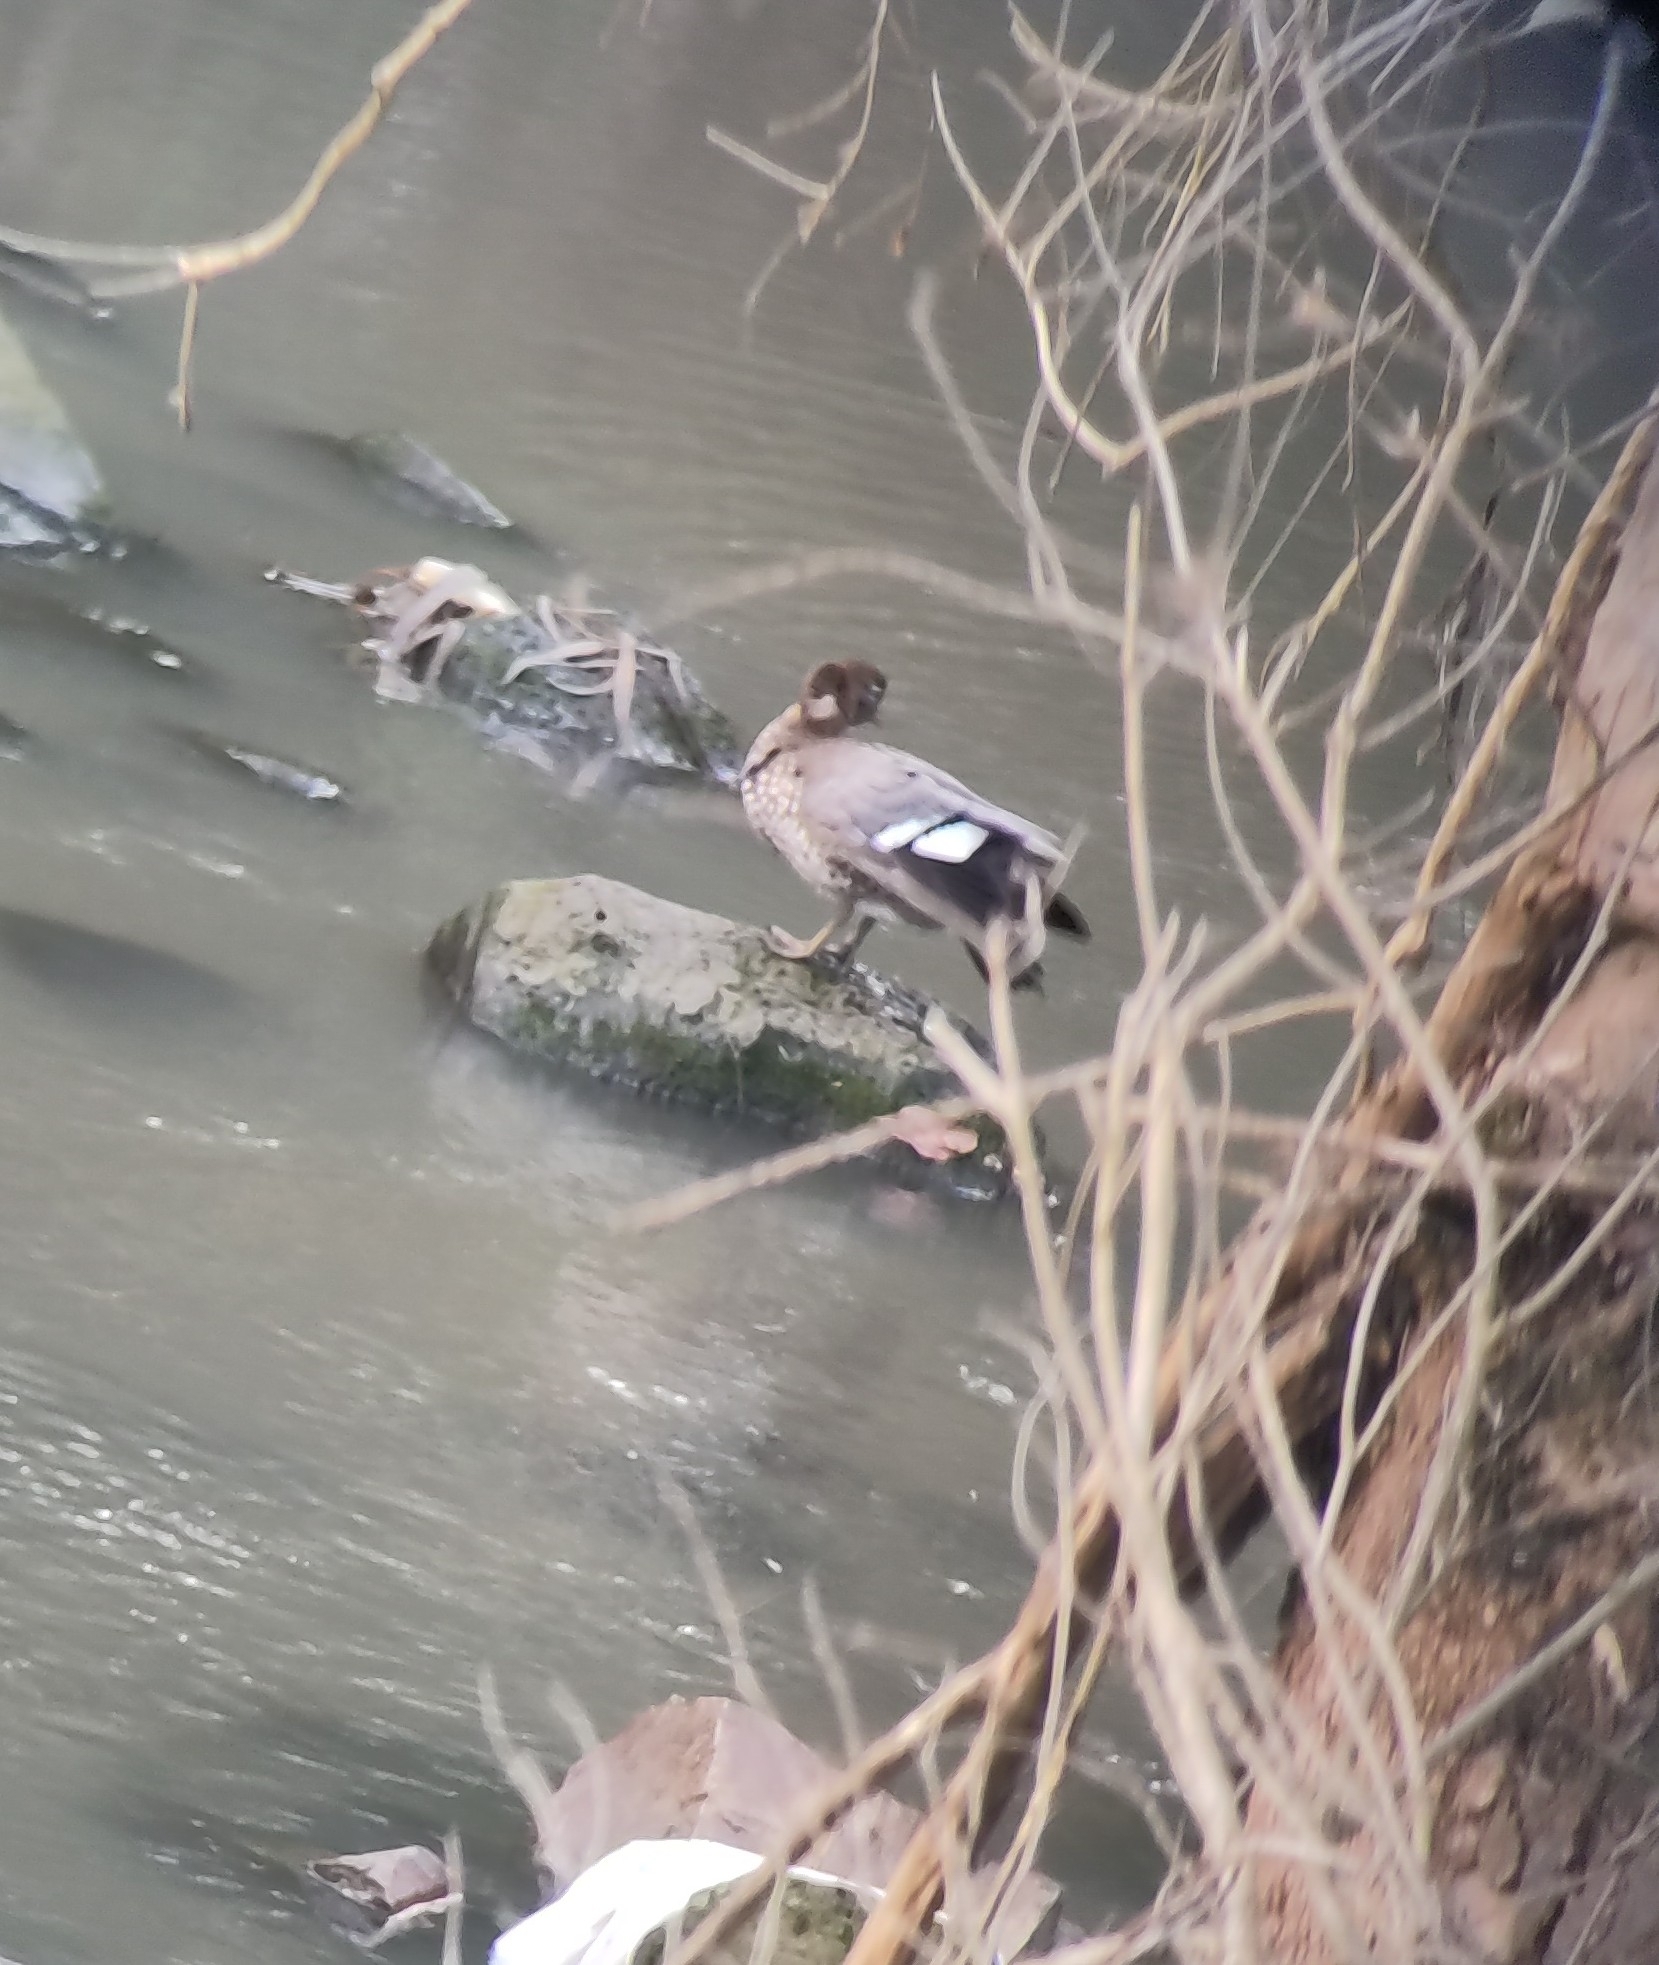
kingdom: Animalia
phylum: Chordata
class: Aves
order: Anseriformes
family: Anatidae
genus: Chenonetta
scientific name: Chenonetta jubata
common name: Maned duck
